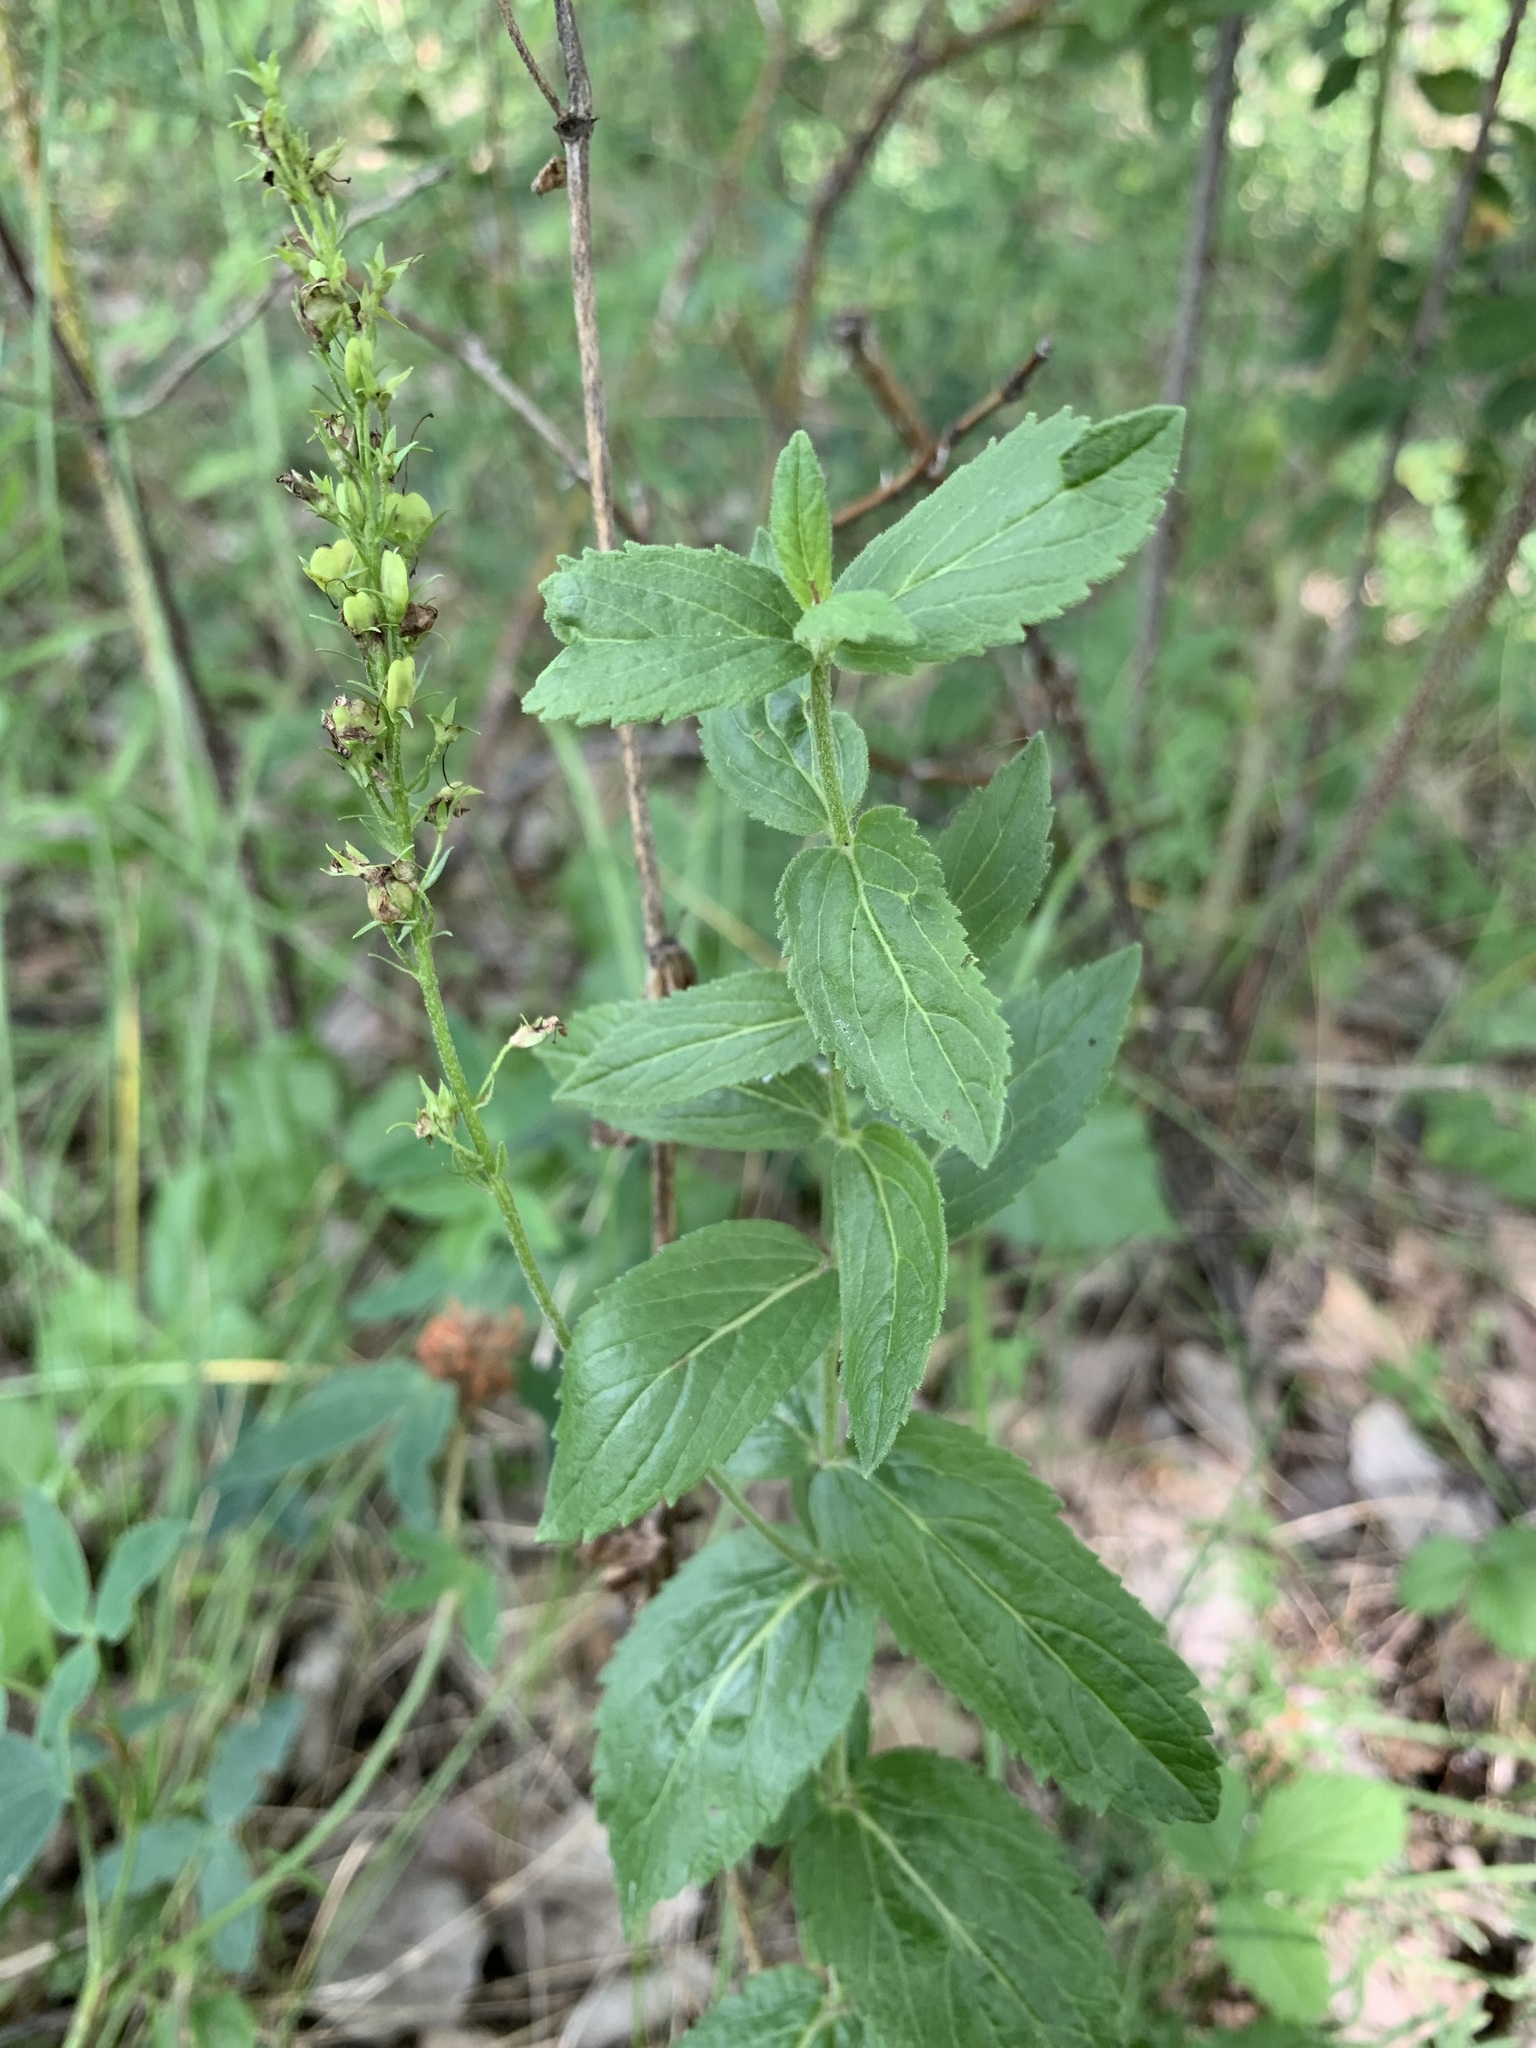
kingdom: Plantae
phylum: Tracheophyta
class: Magnoliopsida
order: Lamiales
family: Plantaginaceae
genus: Veronica
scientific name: Veronica teucrium
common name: Large speedwell
